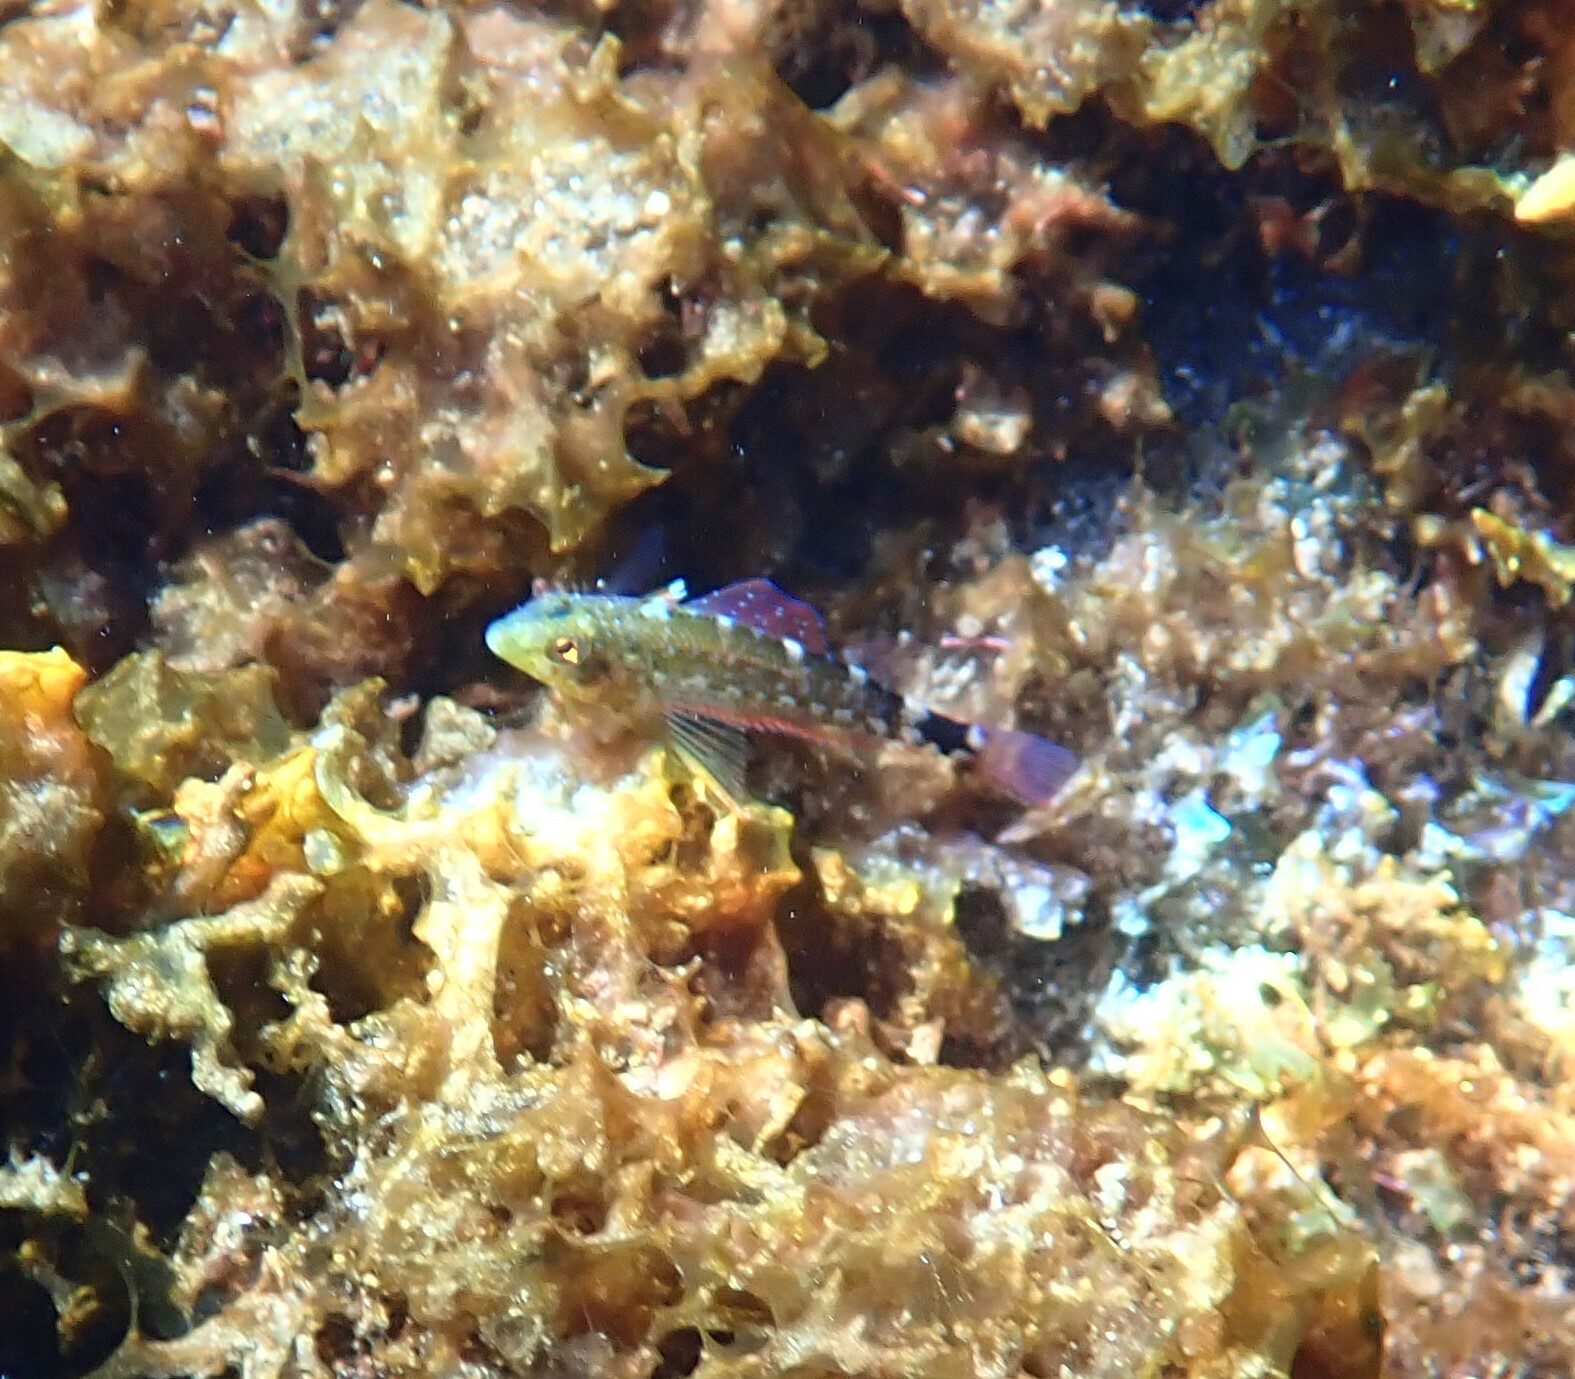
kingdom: Animalia
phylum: Chordata
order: Perciformes
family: Tripterygiidae
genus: Tripterygion
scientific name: Tripterygion delaisi
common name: Black-face blenny
